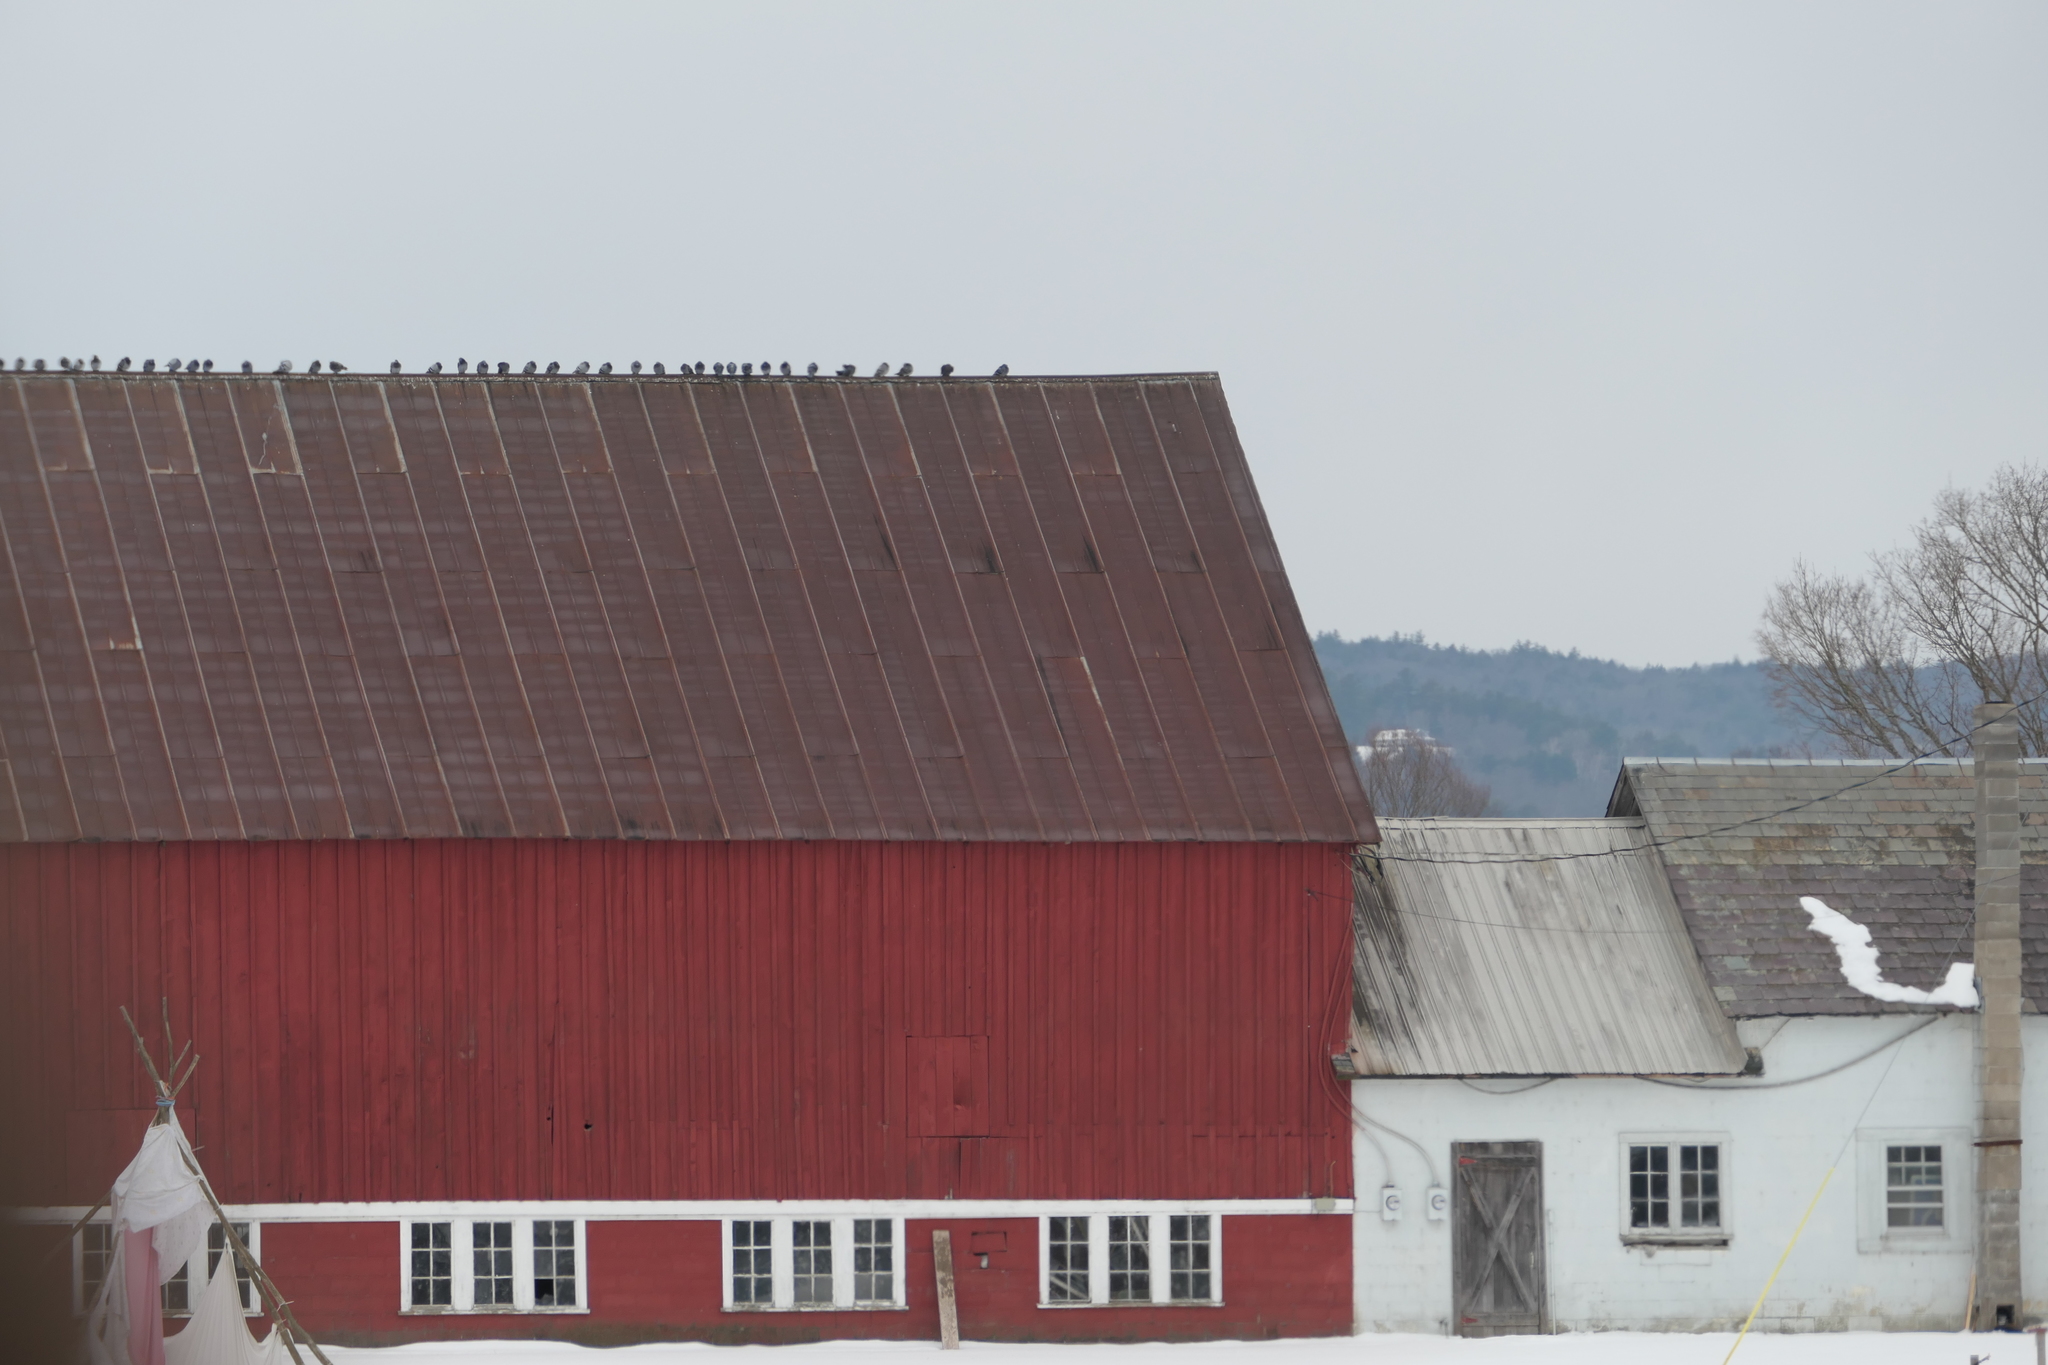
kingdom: Animalia
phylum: Chordata
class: Aves
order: Columbiformes
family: Columbidae
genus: Columba
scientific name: Columba livia
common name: Rock pigeon
